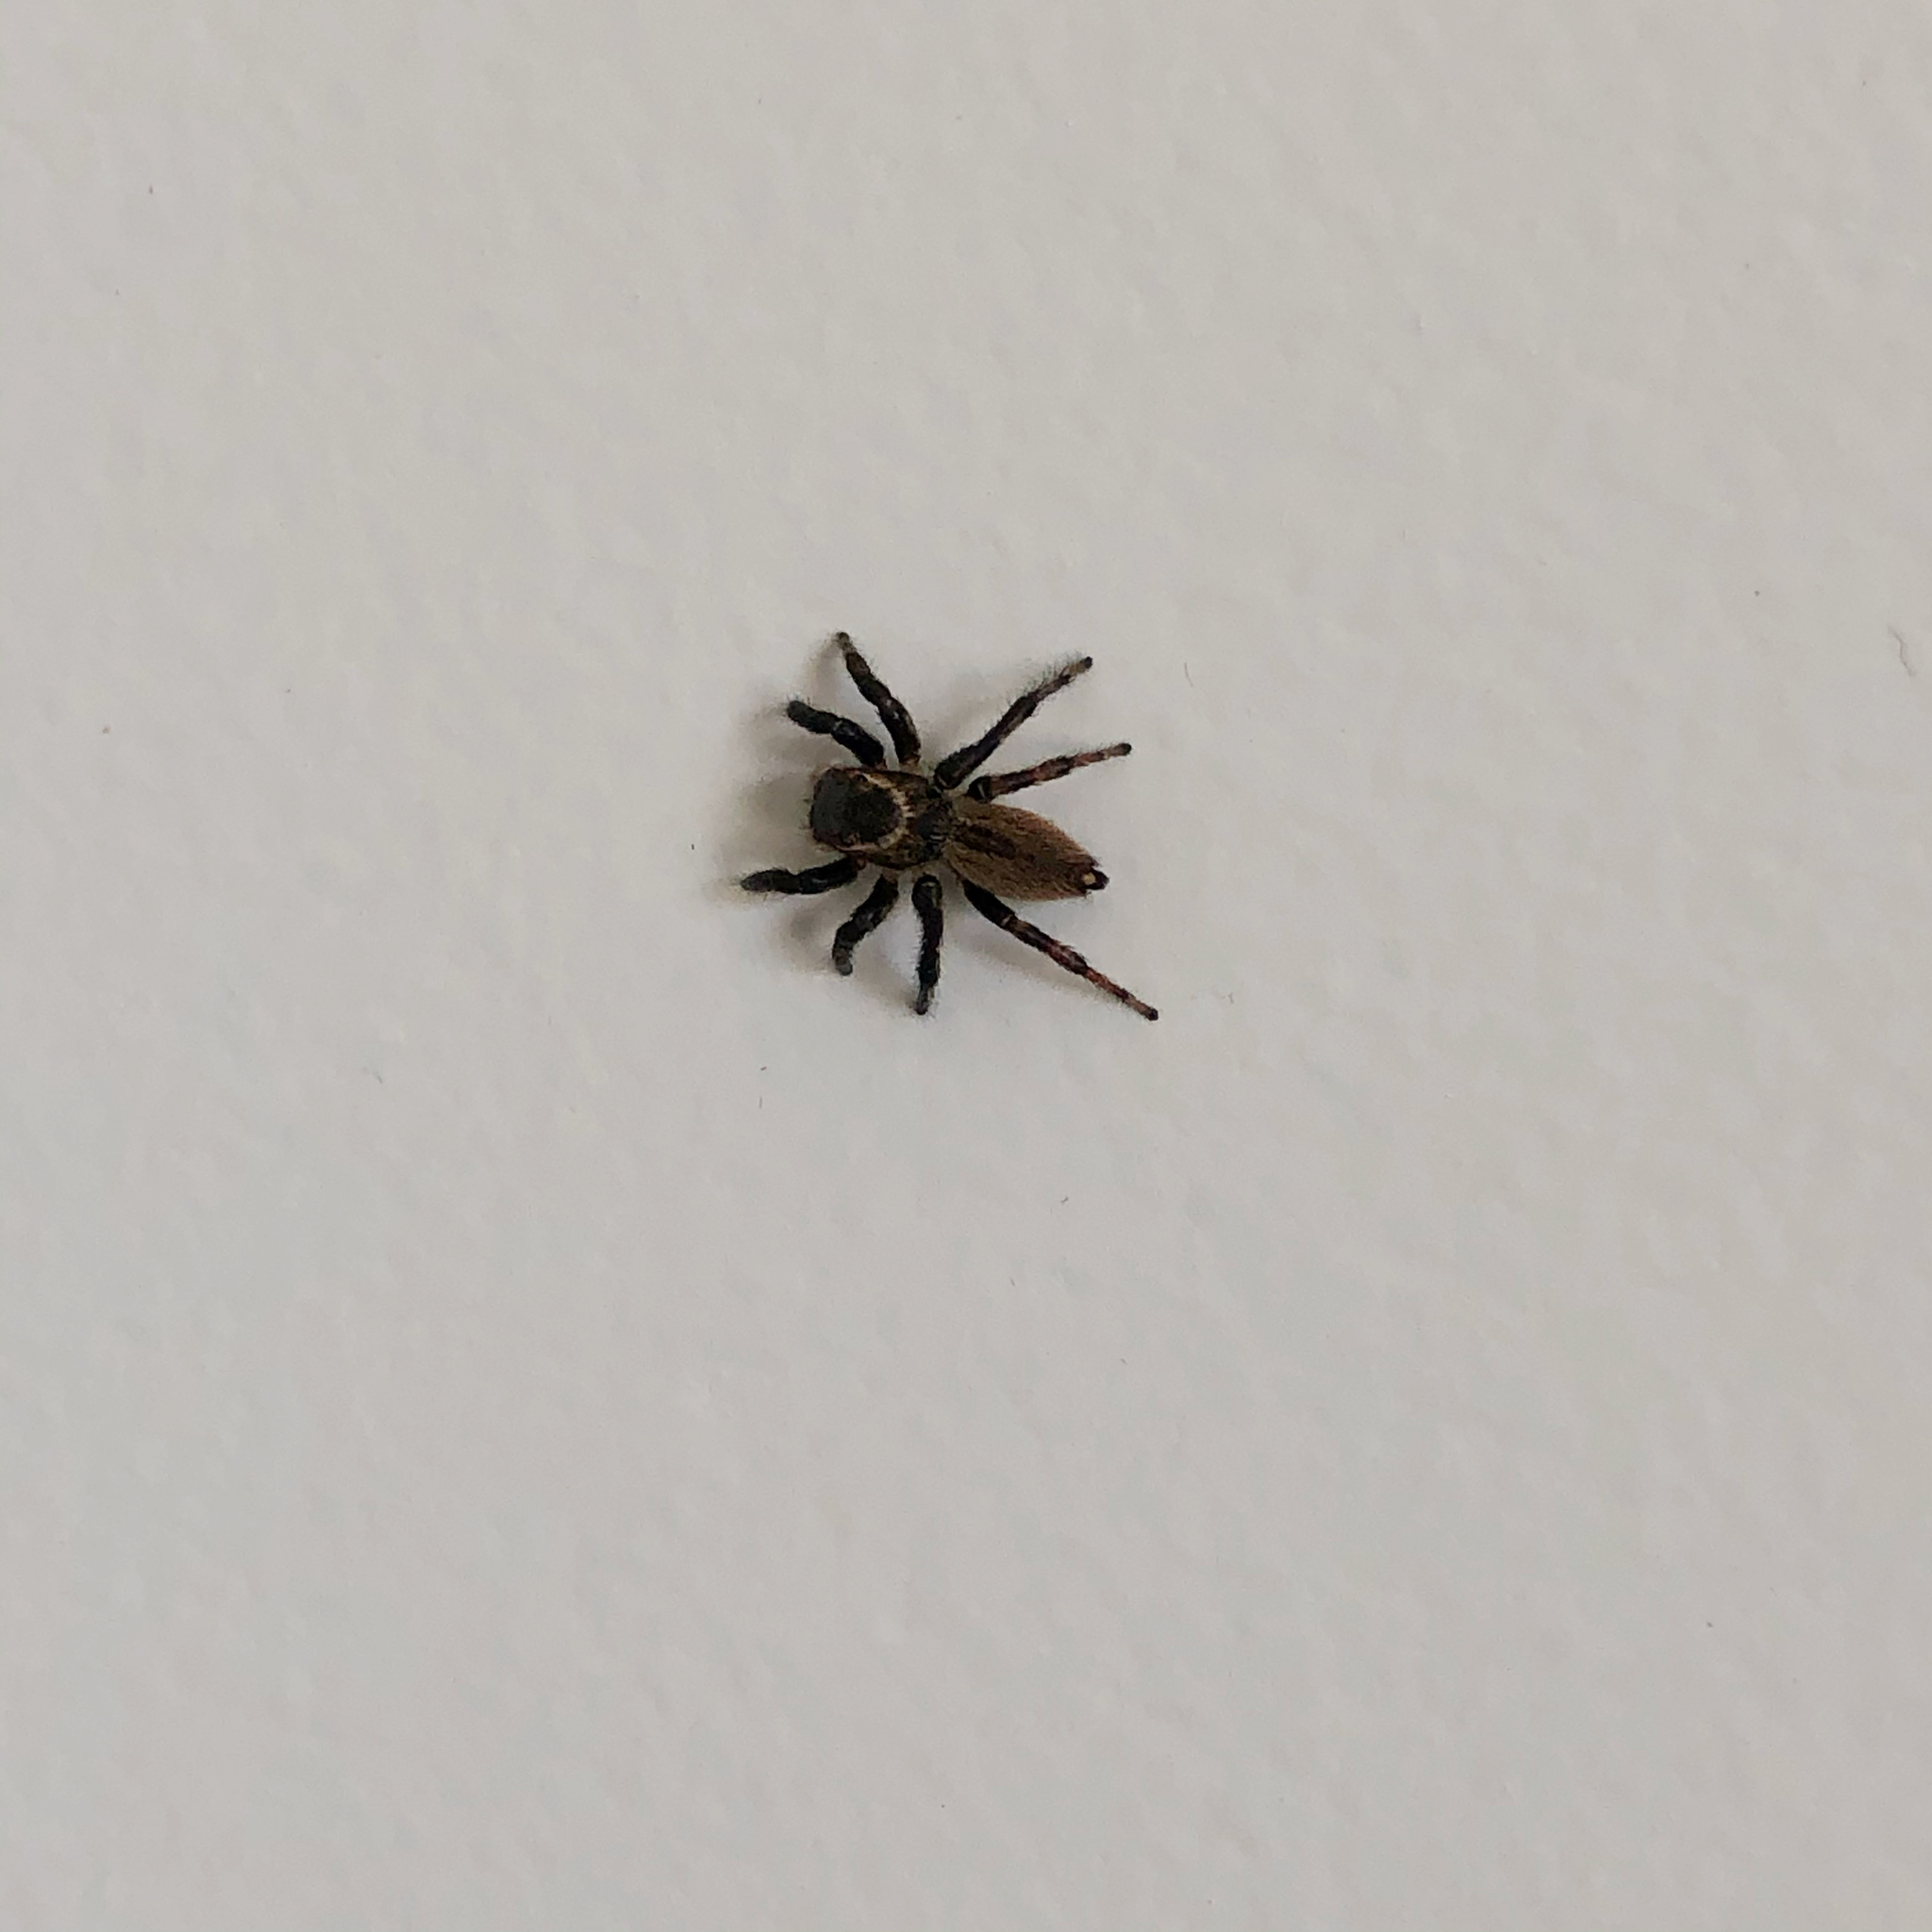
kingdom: Animalia
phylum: Arthropoda
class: Arachnida
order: Araneae
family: Salticidae
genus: Maratus
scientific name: Maratus griseus
